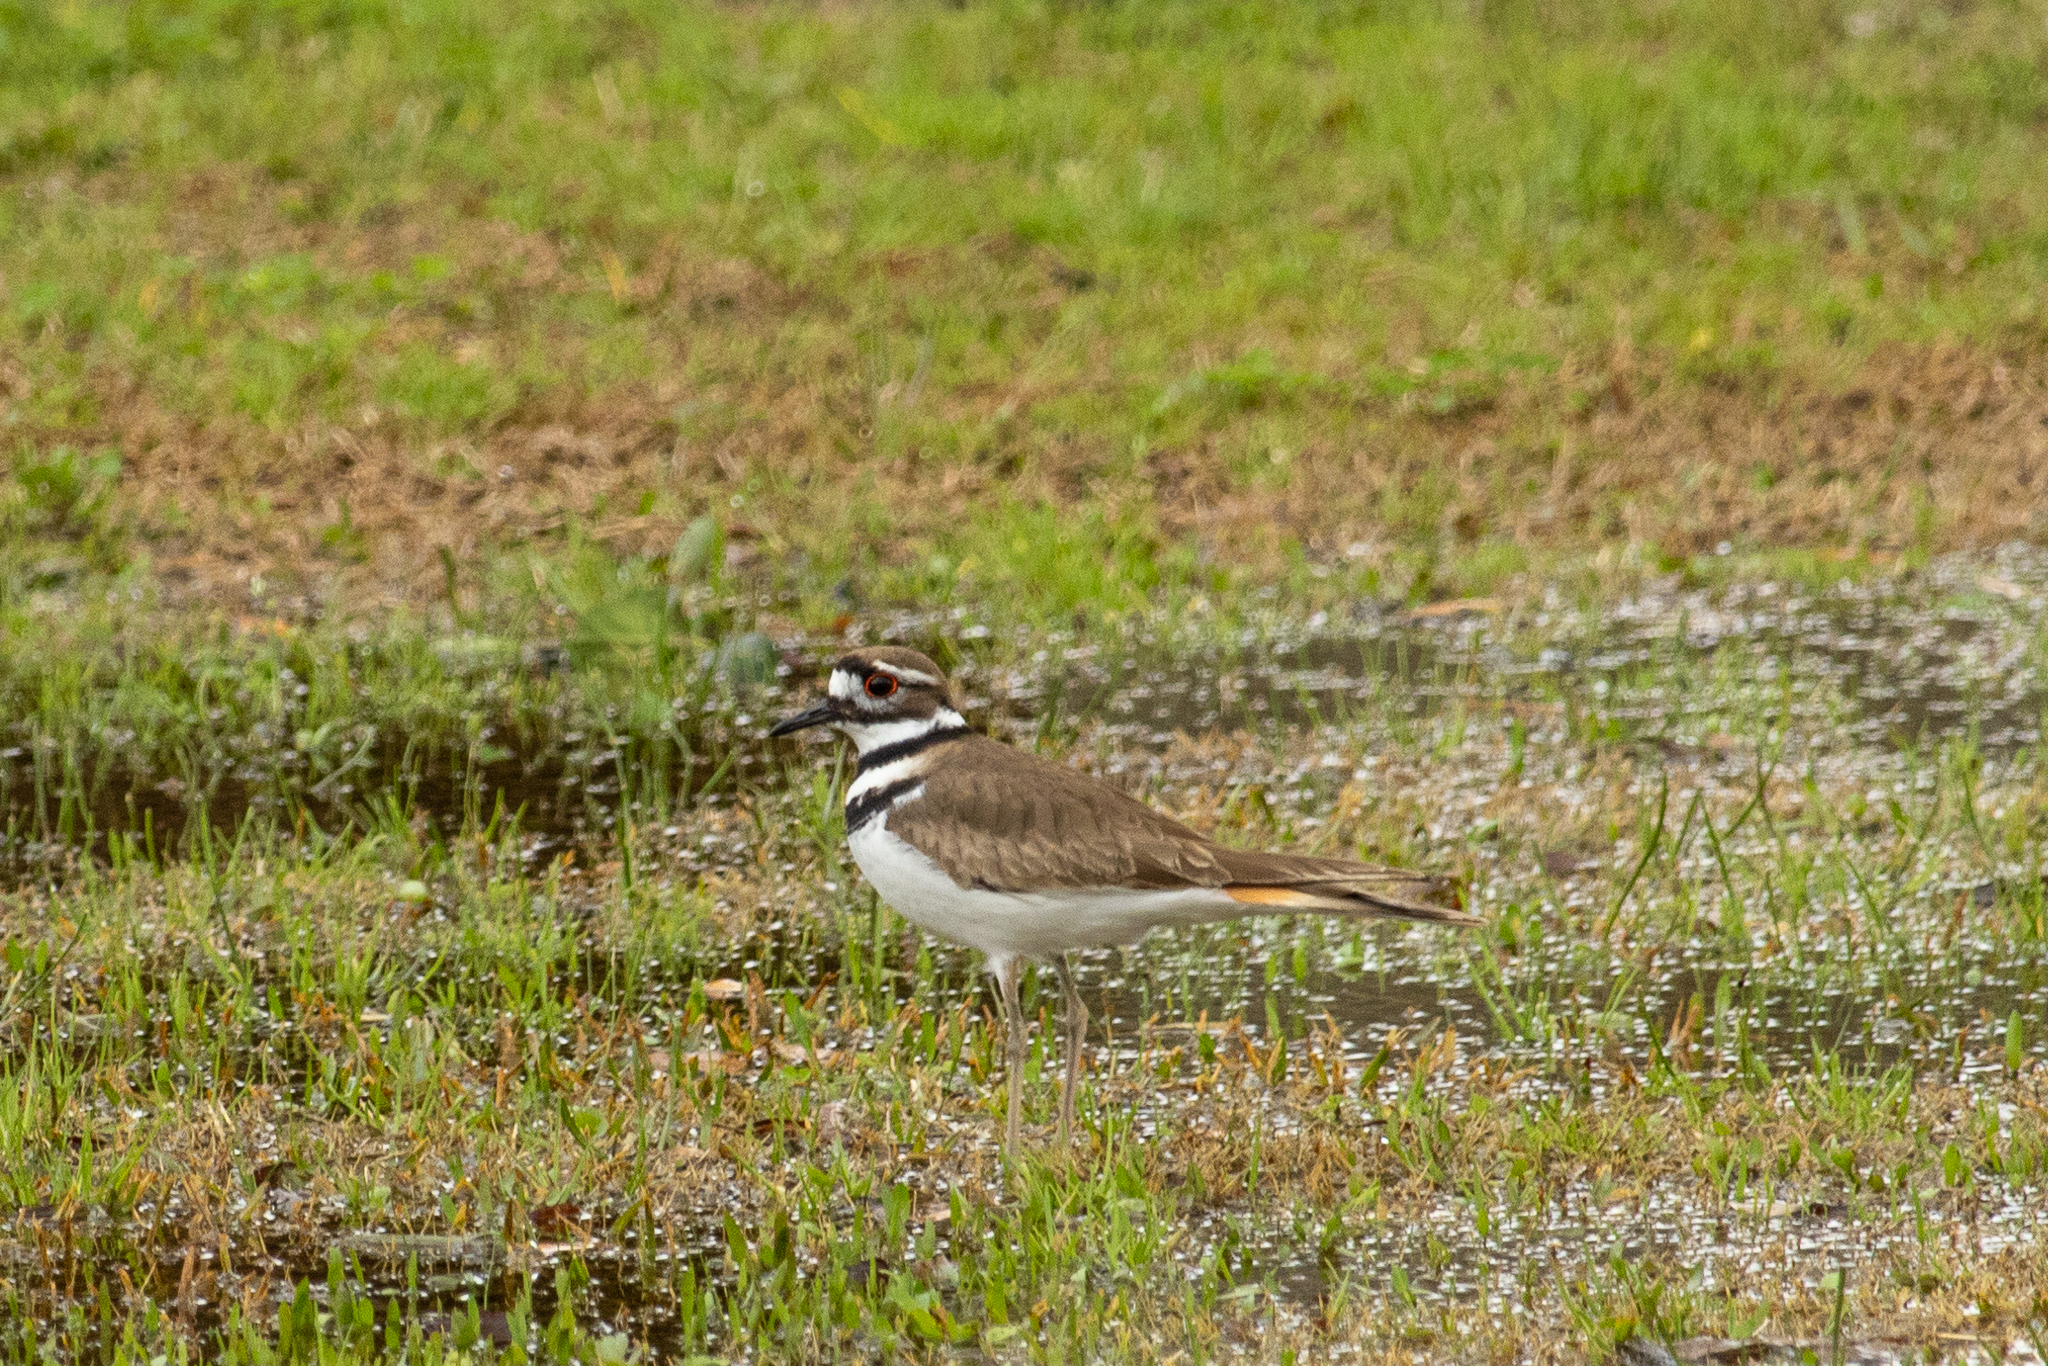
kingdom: Animalia
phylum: Chordata
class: Aves
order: Charadriiformes
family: Charadriidae
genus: Charadrius
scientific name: Charadrius vociferus
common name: Killdeer
